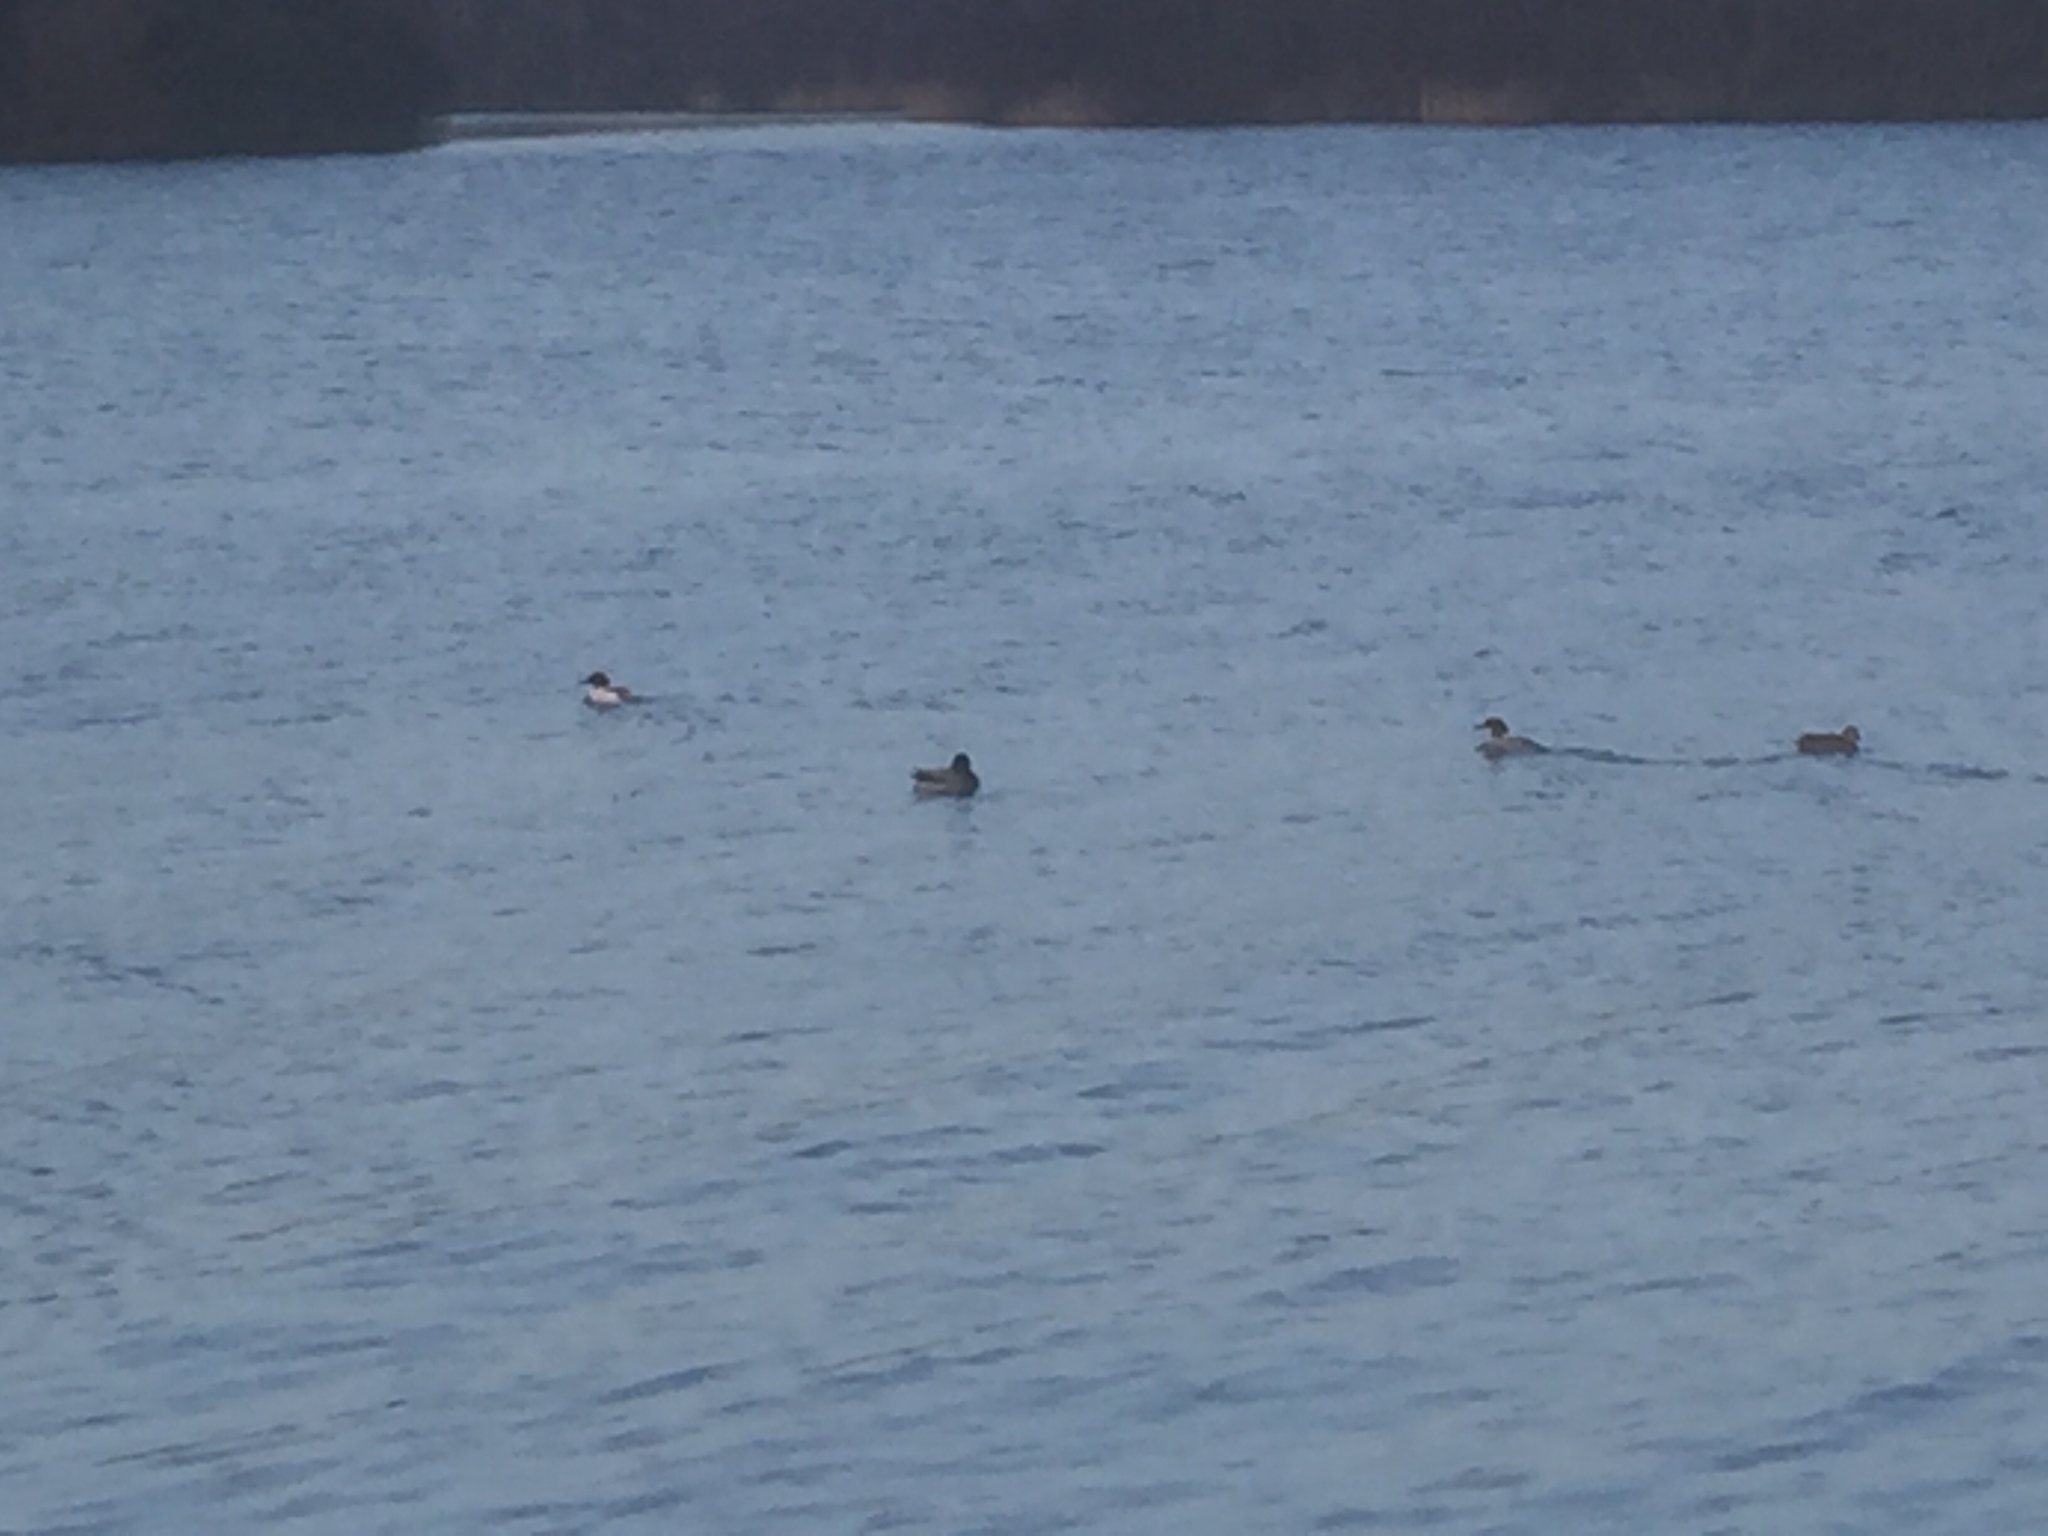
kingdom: Animalia
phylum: Chordata
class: Aves
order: Anseriformes
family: Anatidae
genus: Mergus
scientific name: Mergus serrator
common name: Red-breasted merganser
